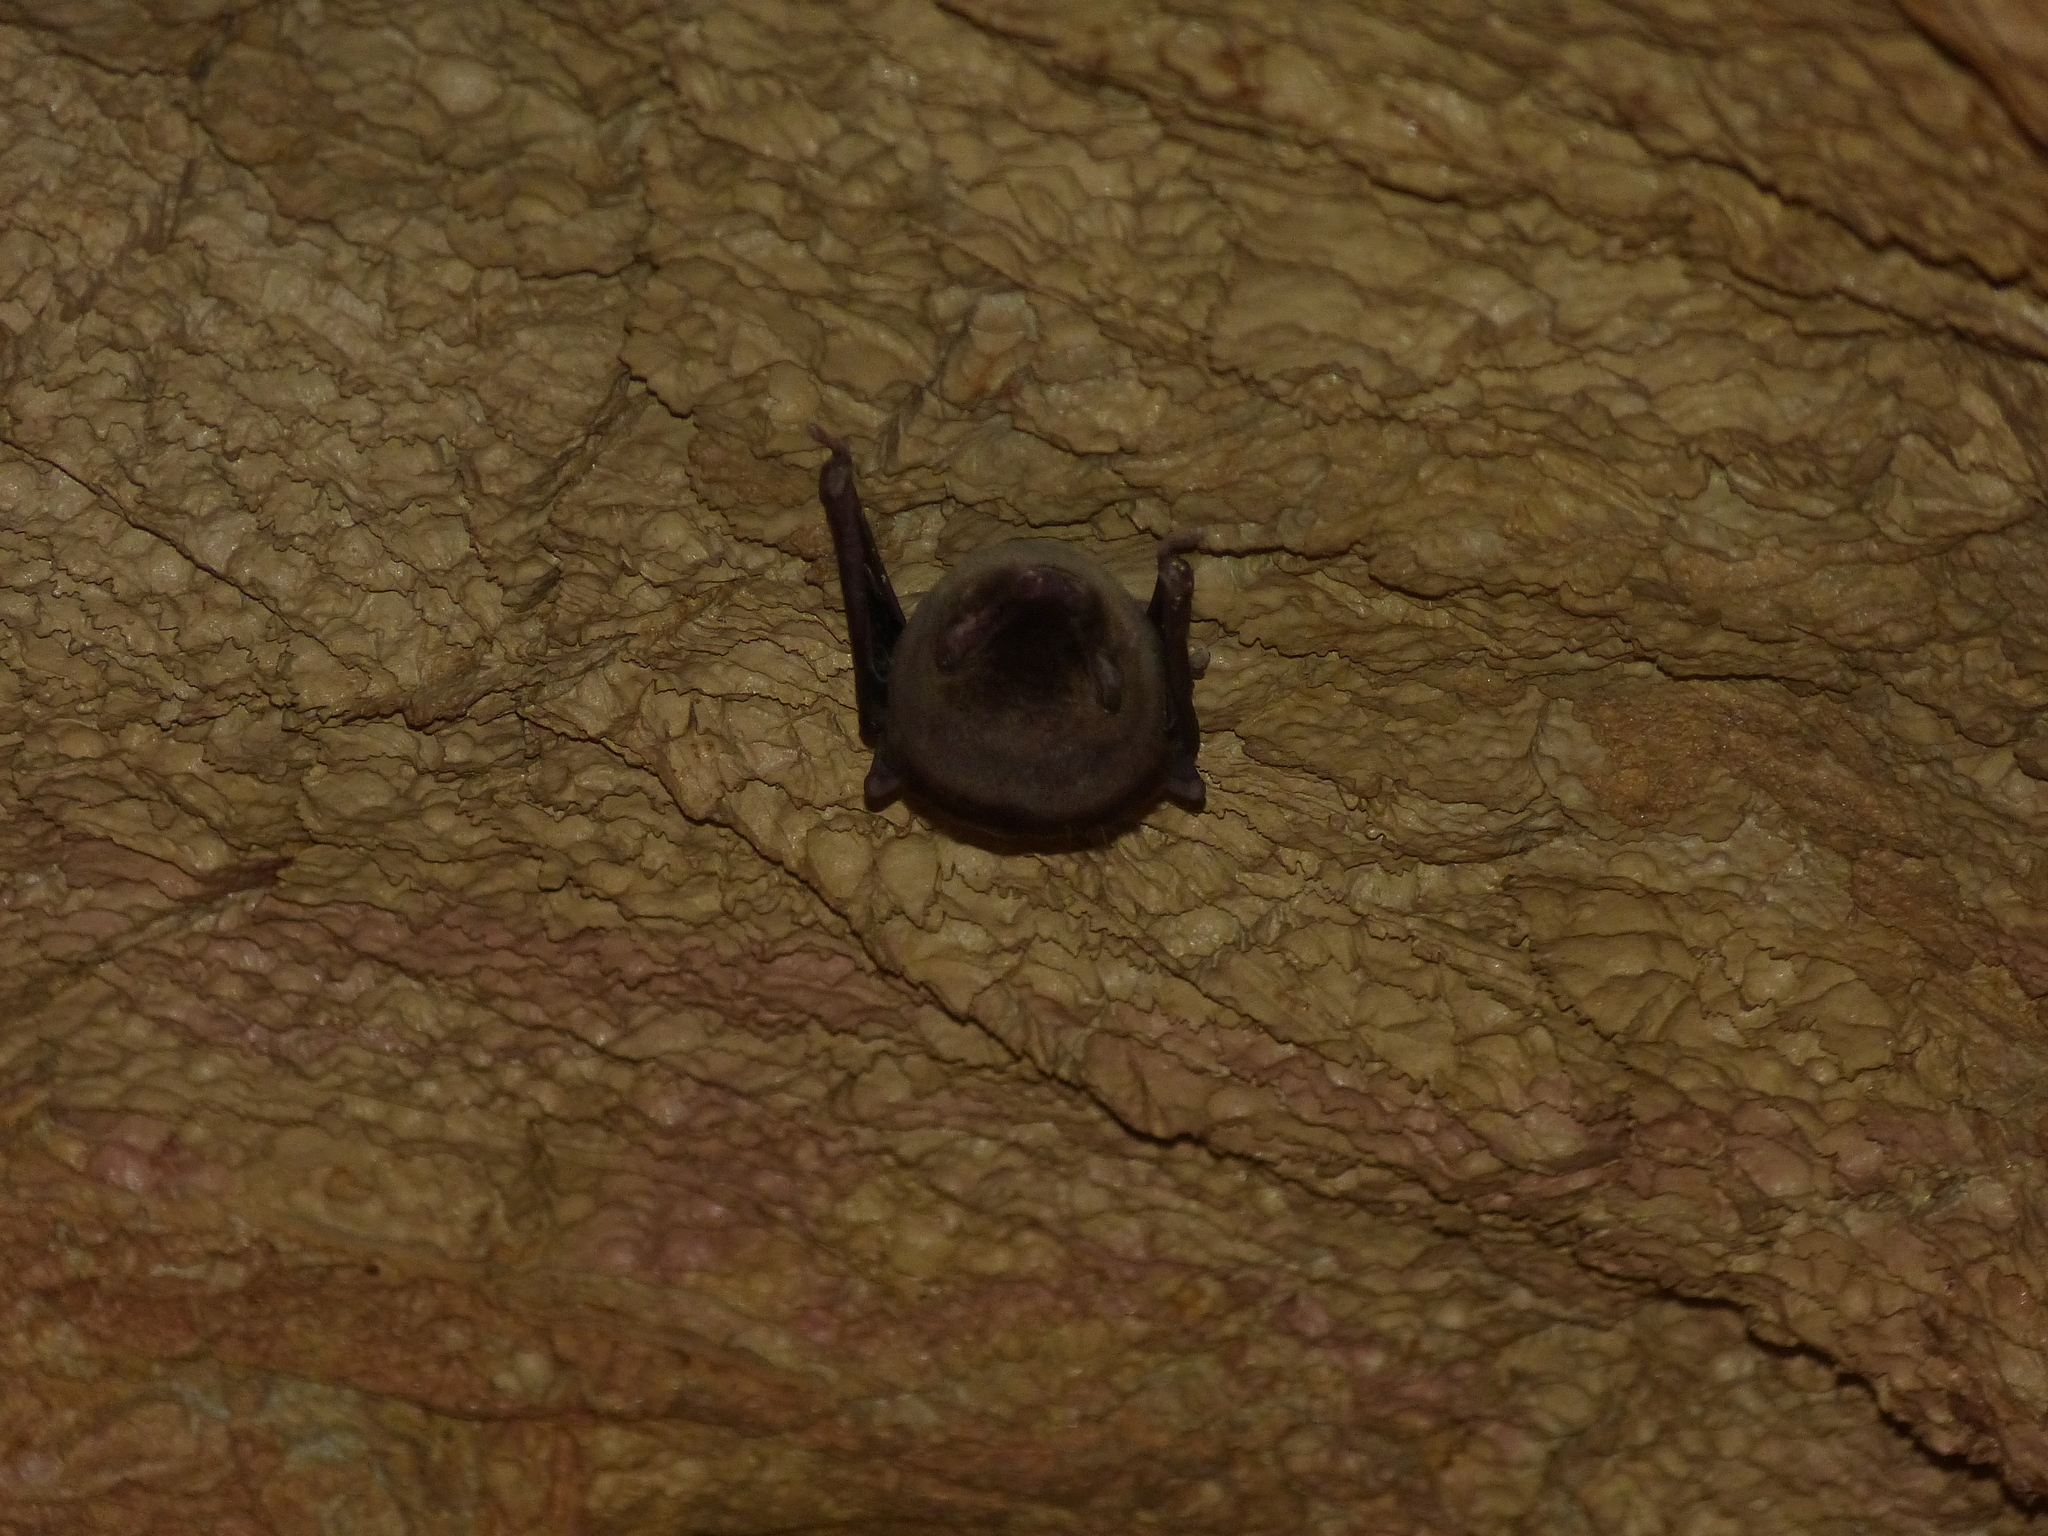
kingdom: Animalia
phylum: Chordata
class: Mammalia
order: Chiroptera
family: Miniopteridae
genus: Miniopterus
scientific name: Miniopterus schreibersii
